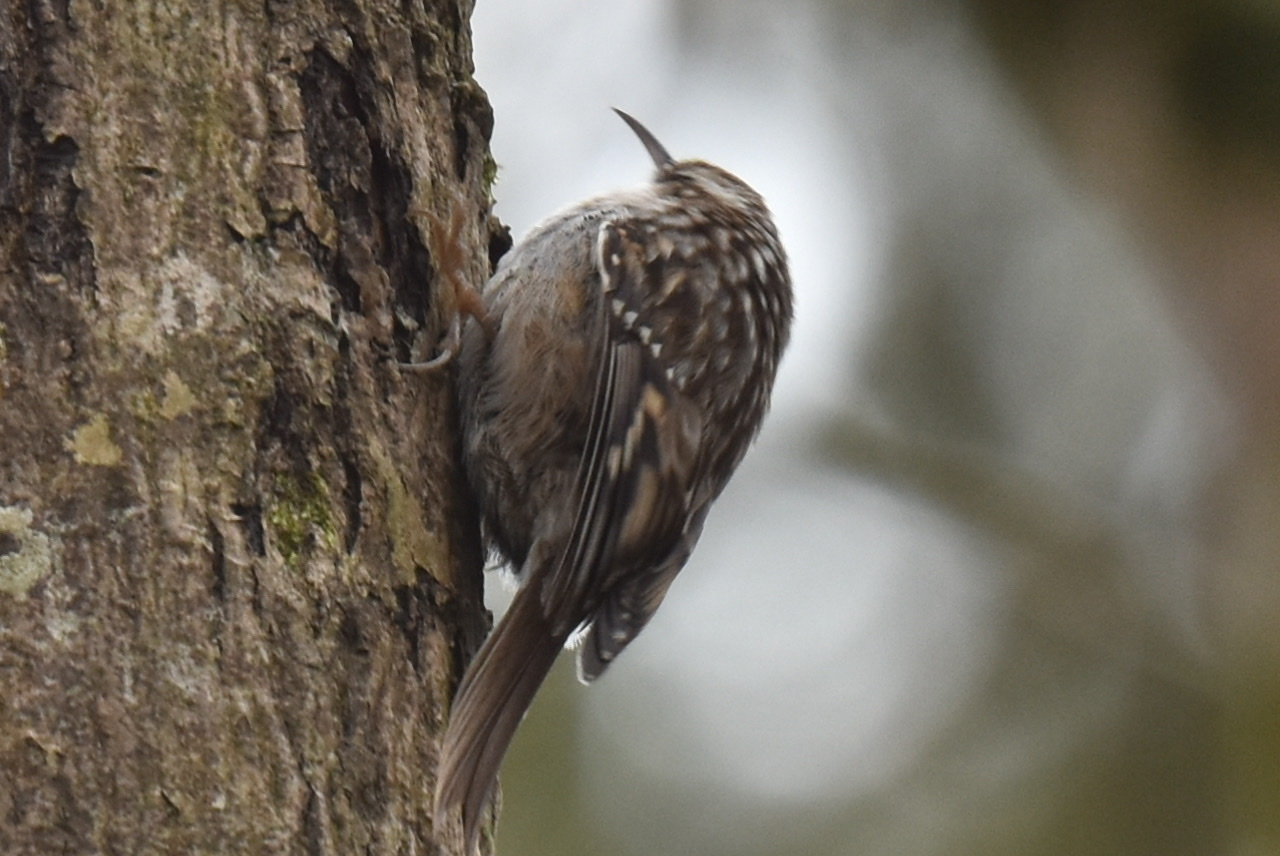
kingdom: Animalia
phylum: Chordata
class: Aves
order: Passeriformes
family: Certhiidae
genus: Certhia
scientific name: Certhia brachydactyla
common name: Short-toed treecreeper
